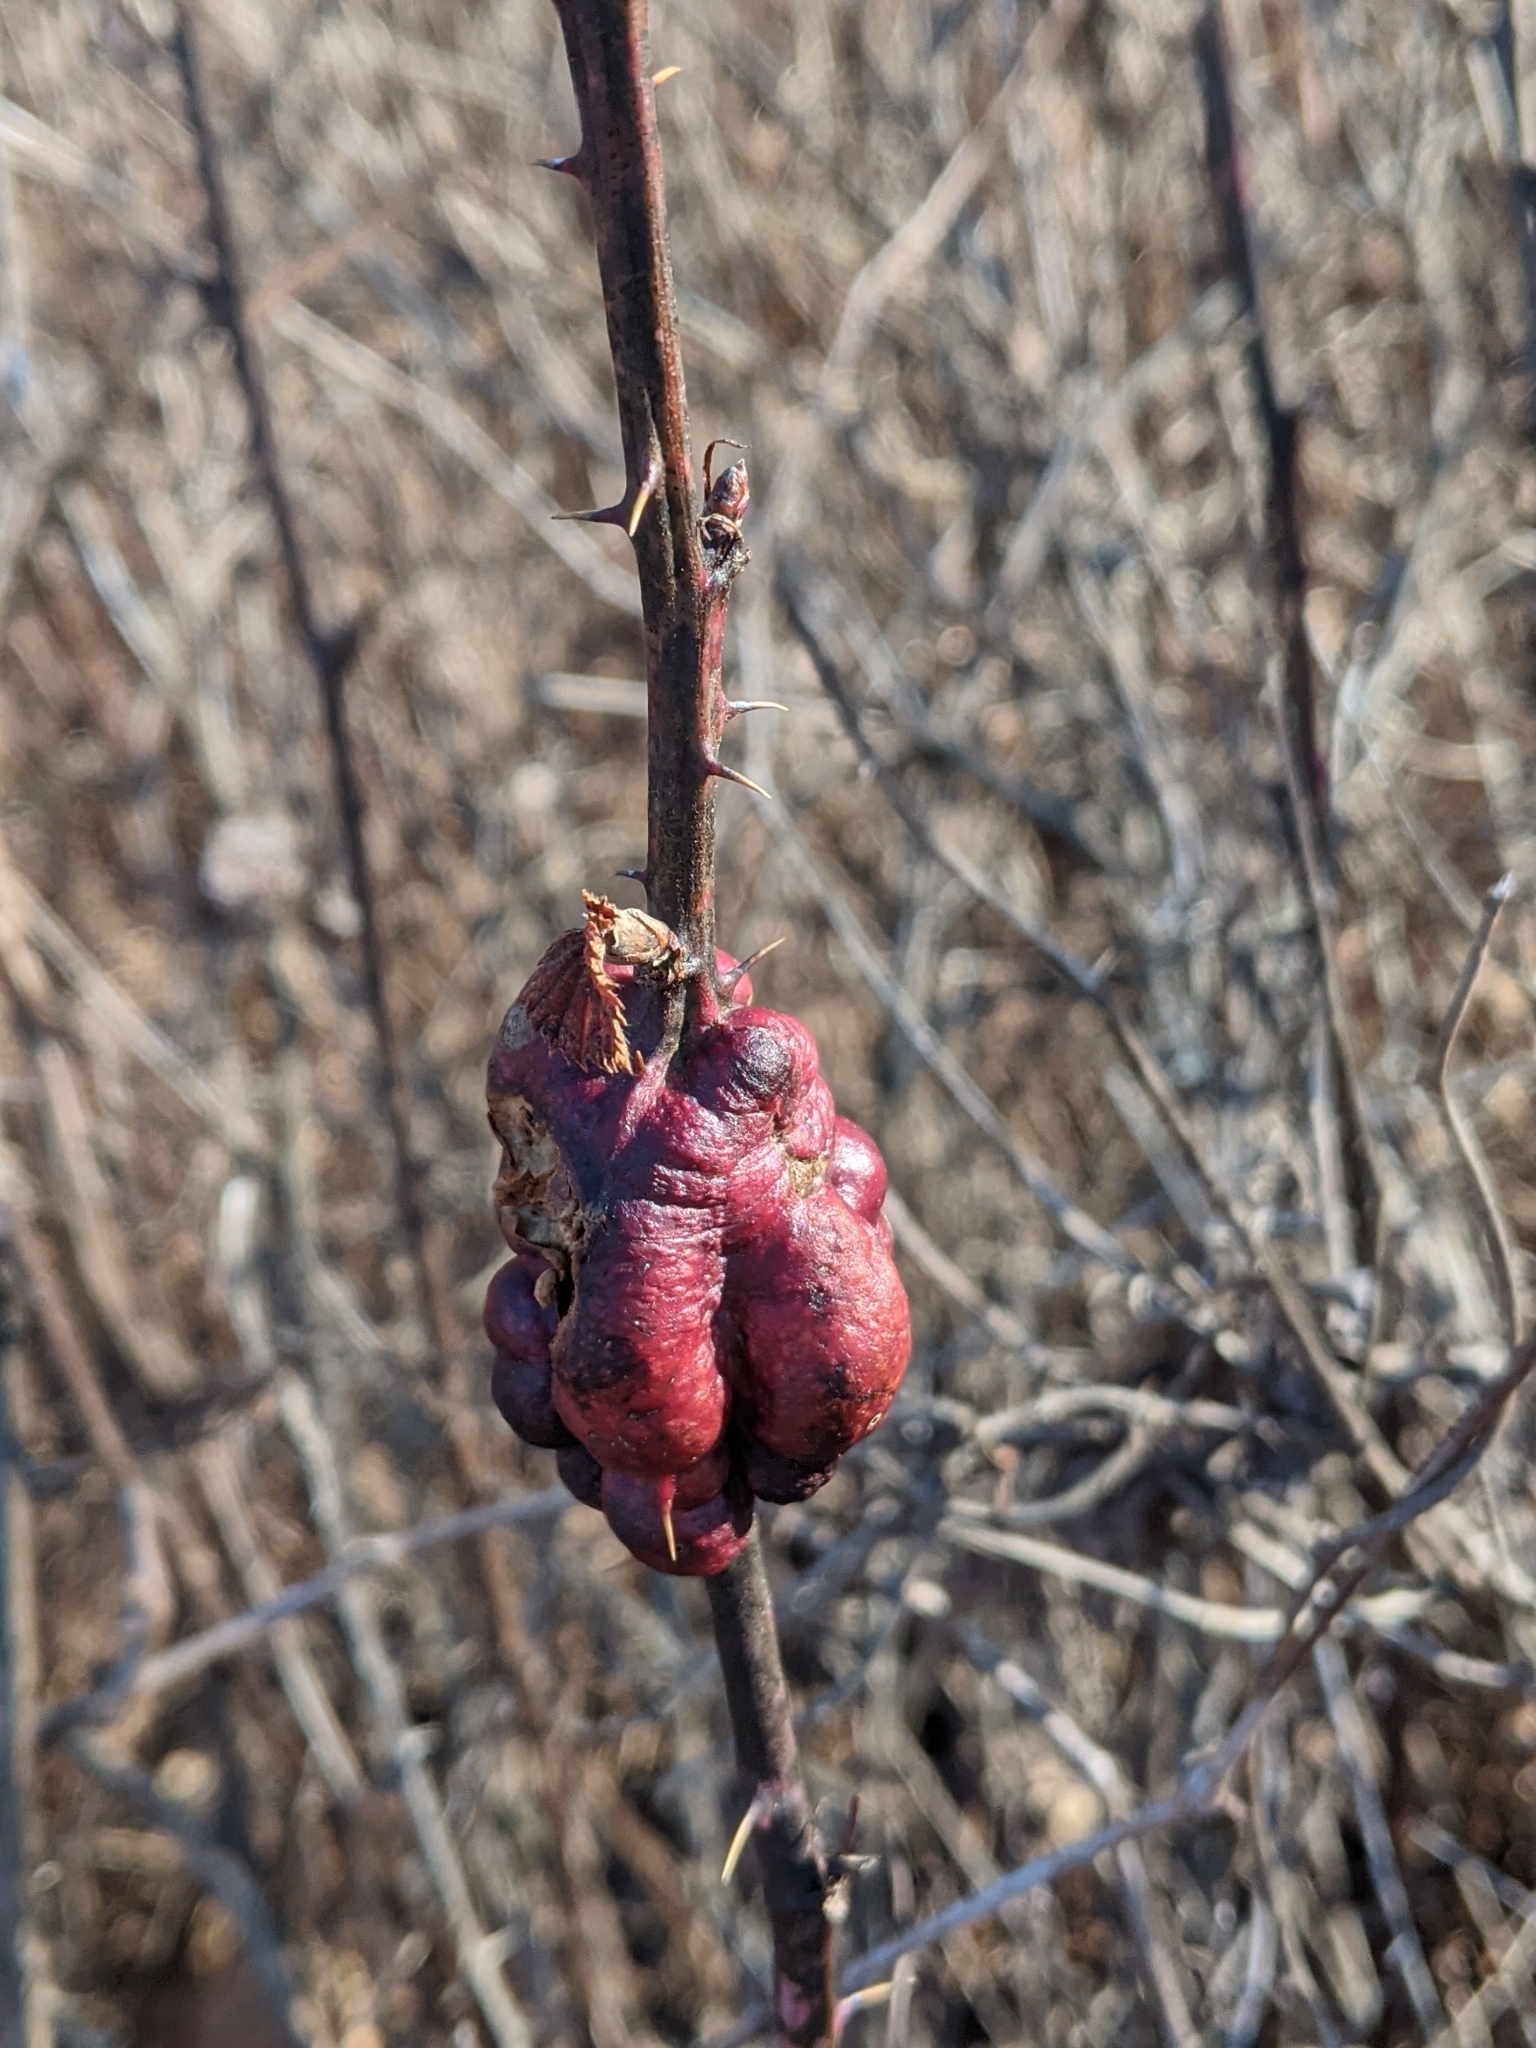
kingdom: Animalia
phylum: Arthropoda
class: Insecta
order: Hymenoptera
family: Cynipidae
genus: Diastrophus
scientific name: Diastrophus
